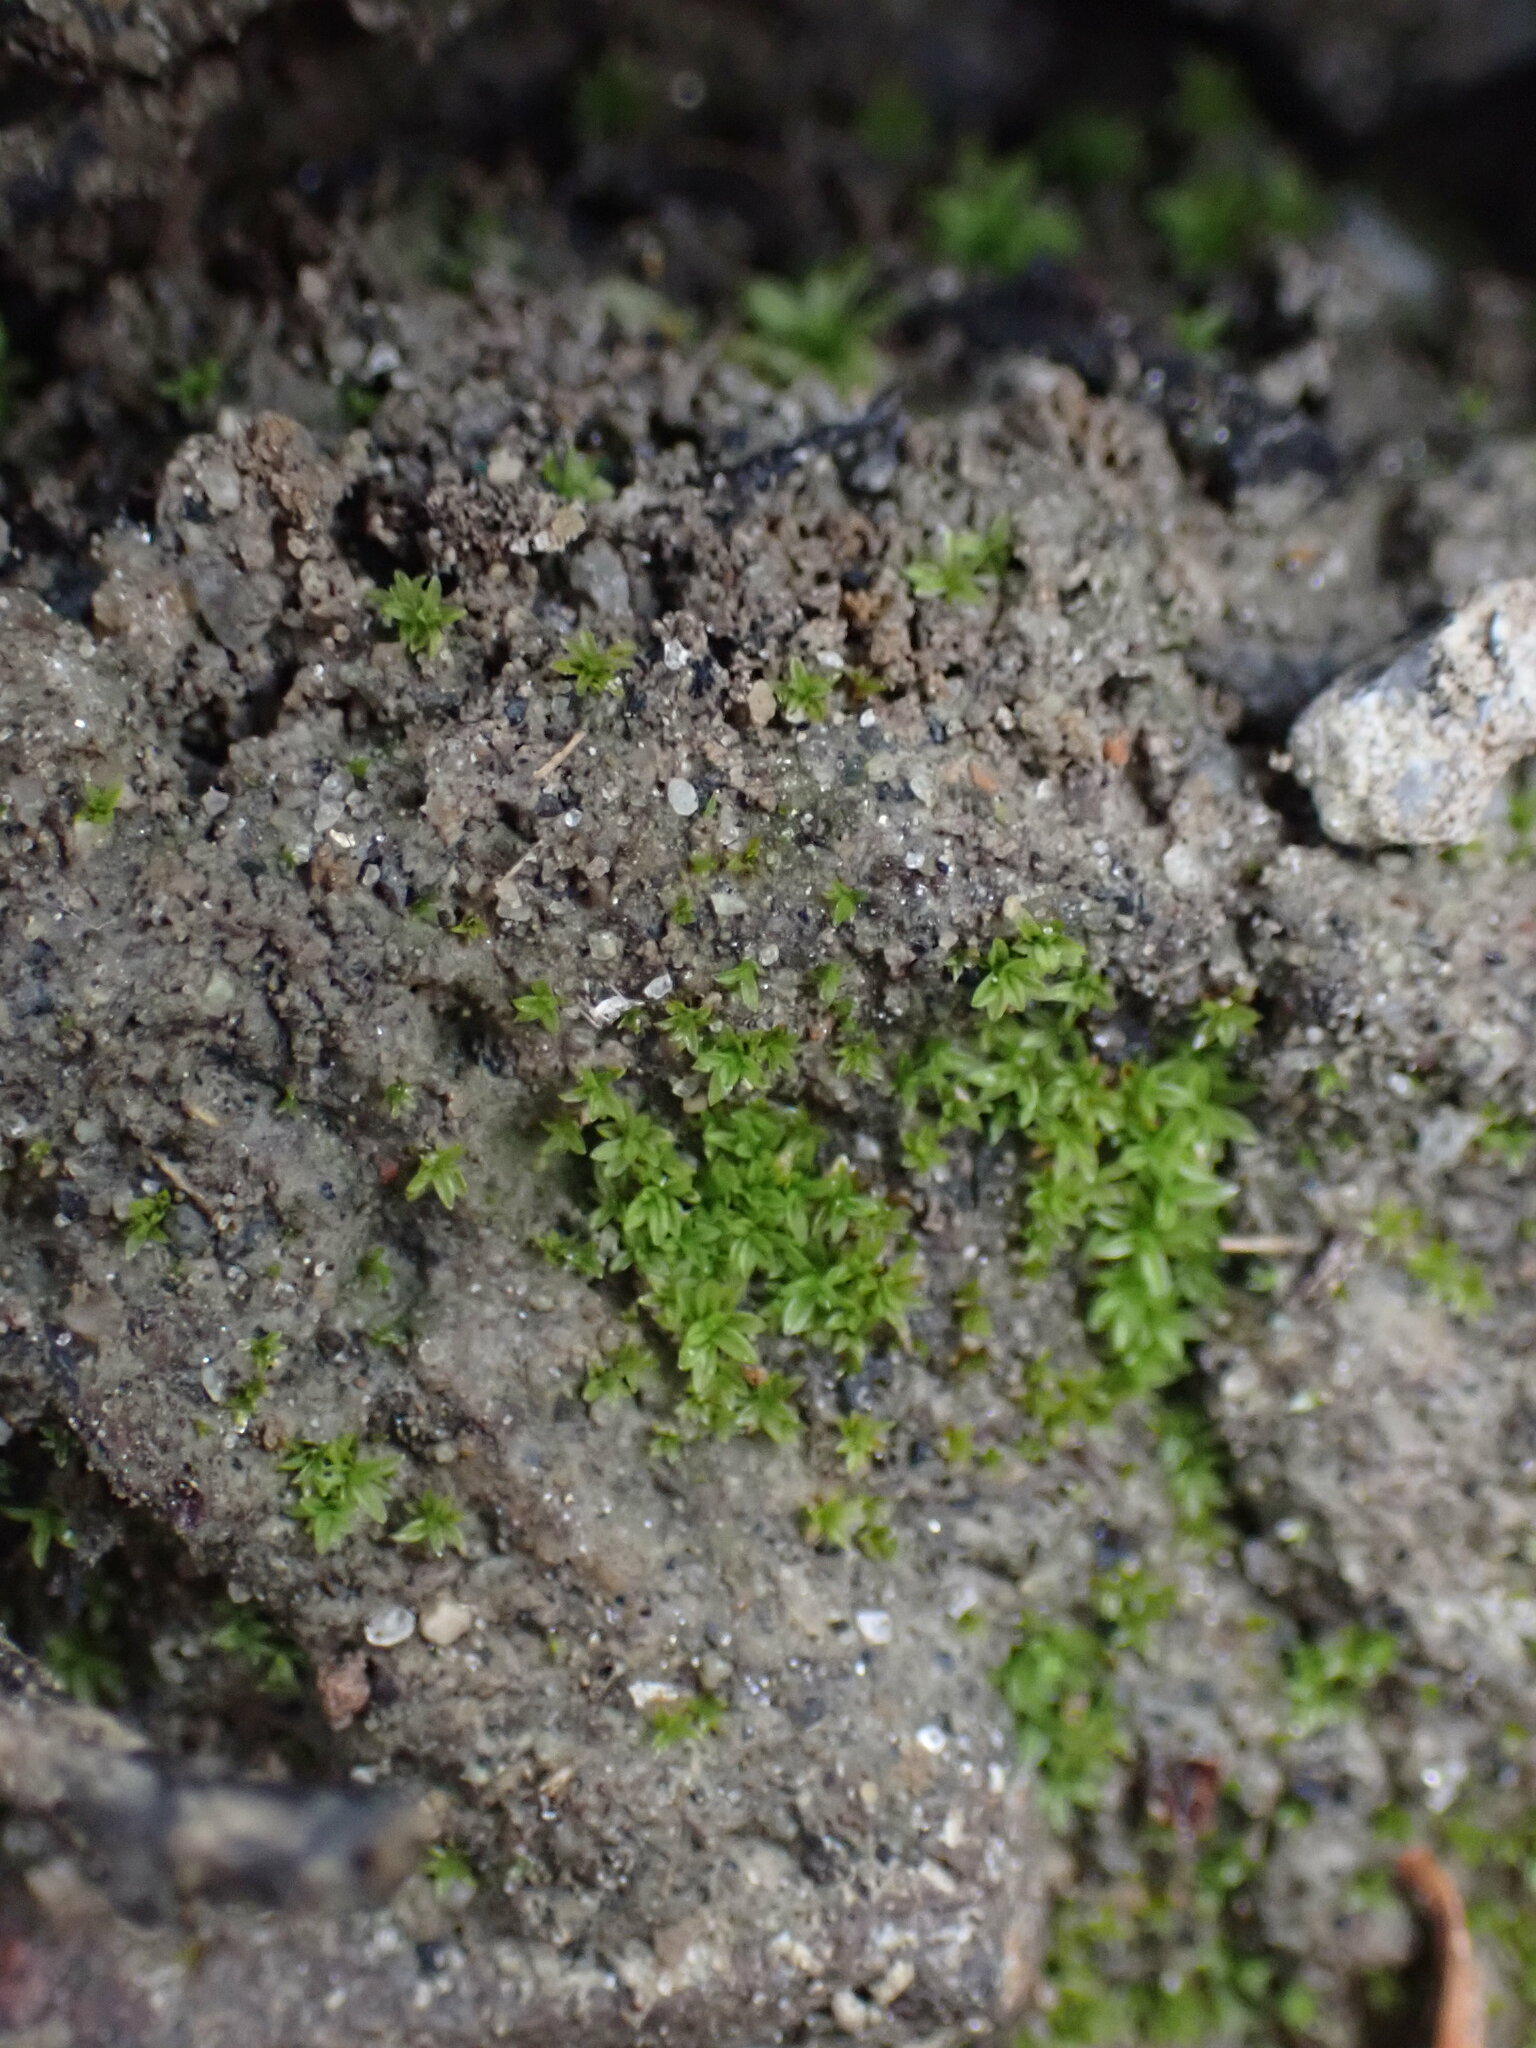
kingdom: Plantae
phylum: Bryophyta
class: Bryopsida
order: Pottiales
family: Pottiaceae
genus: Tortula
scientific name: Tortula amplexa
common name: Clay screw-moss
